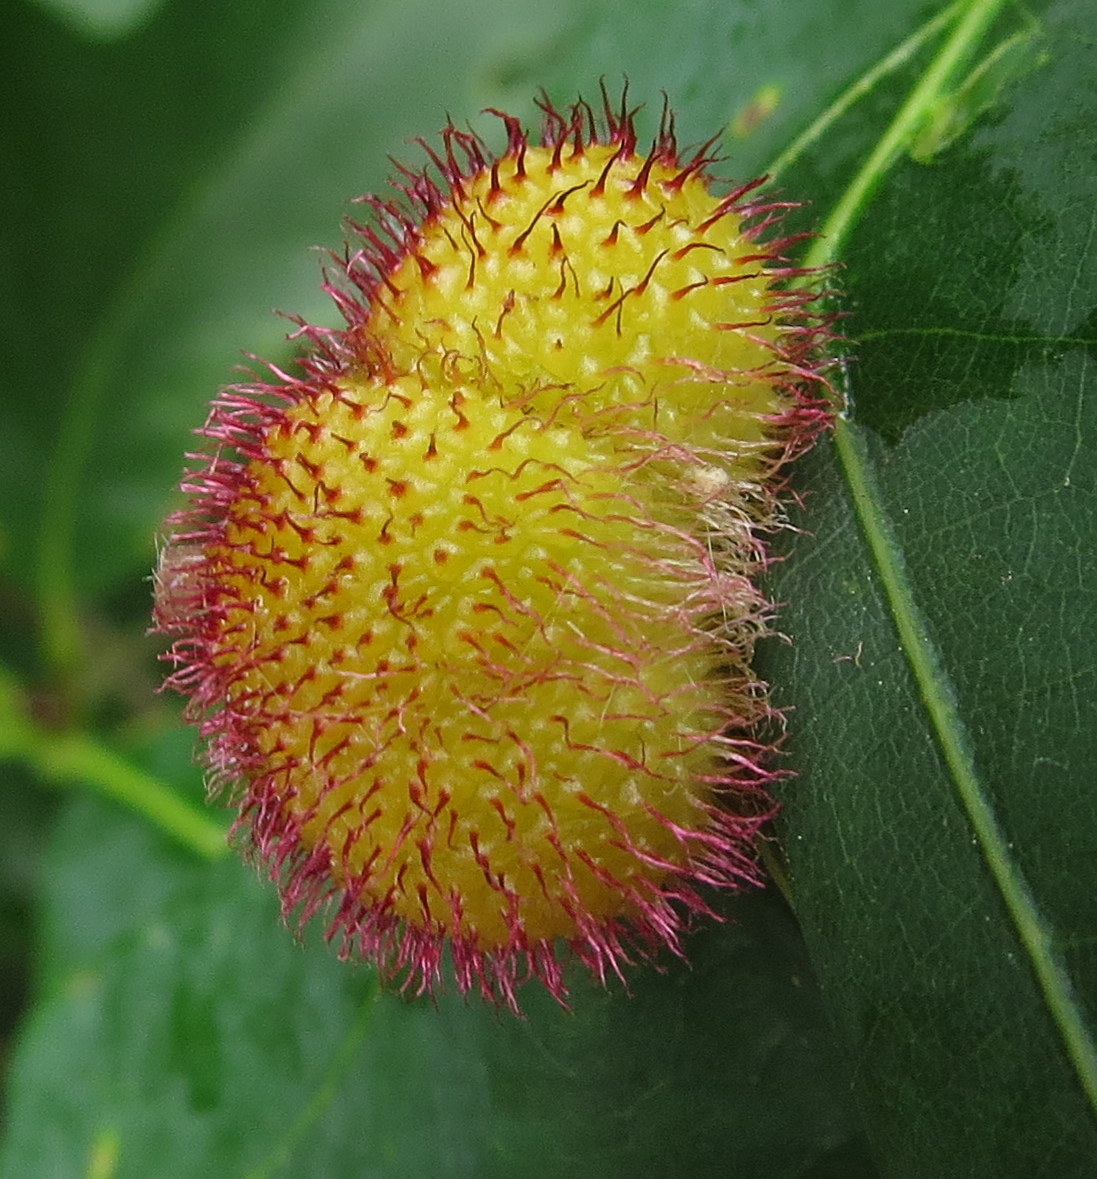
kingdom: Animalia
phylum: Arthropoda
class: Insecta
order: Hymenoptera
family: Cynipidae
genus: Acraspis
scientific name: Acraspis erinacei
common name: Hedgehog gall wasp
